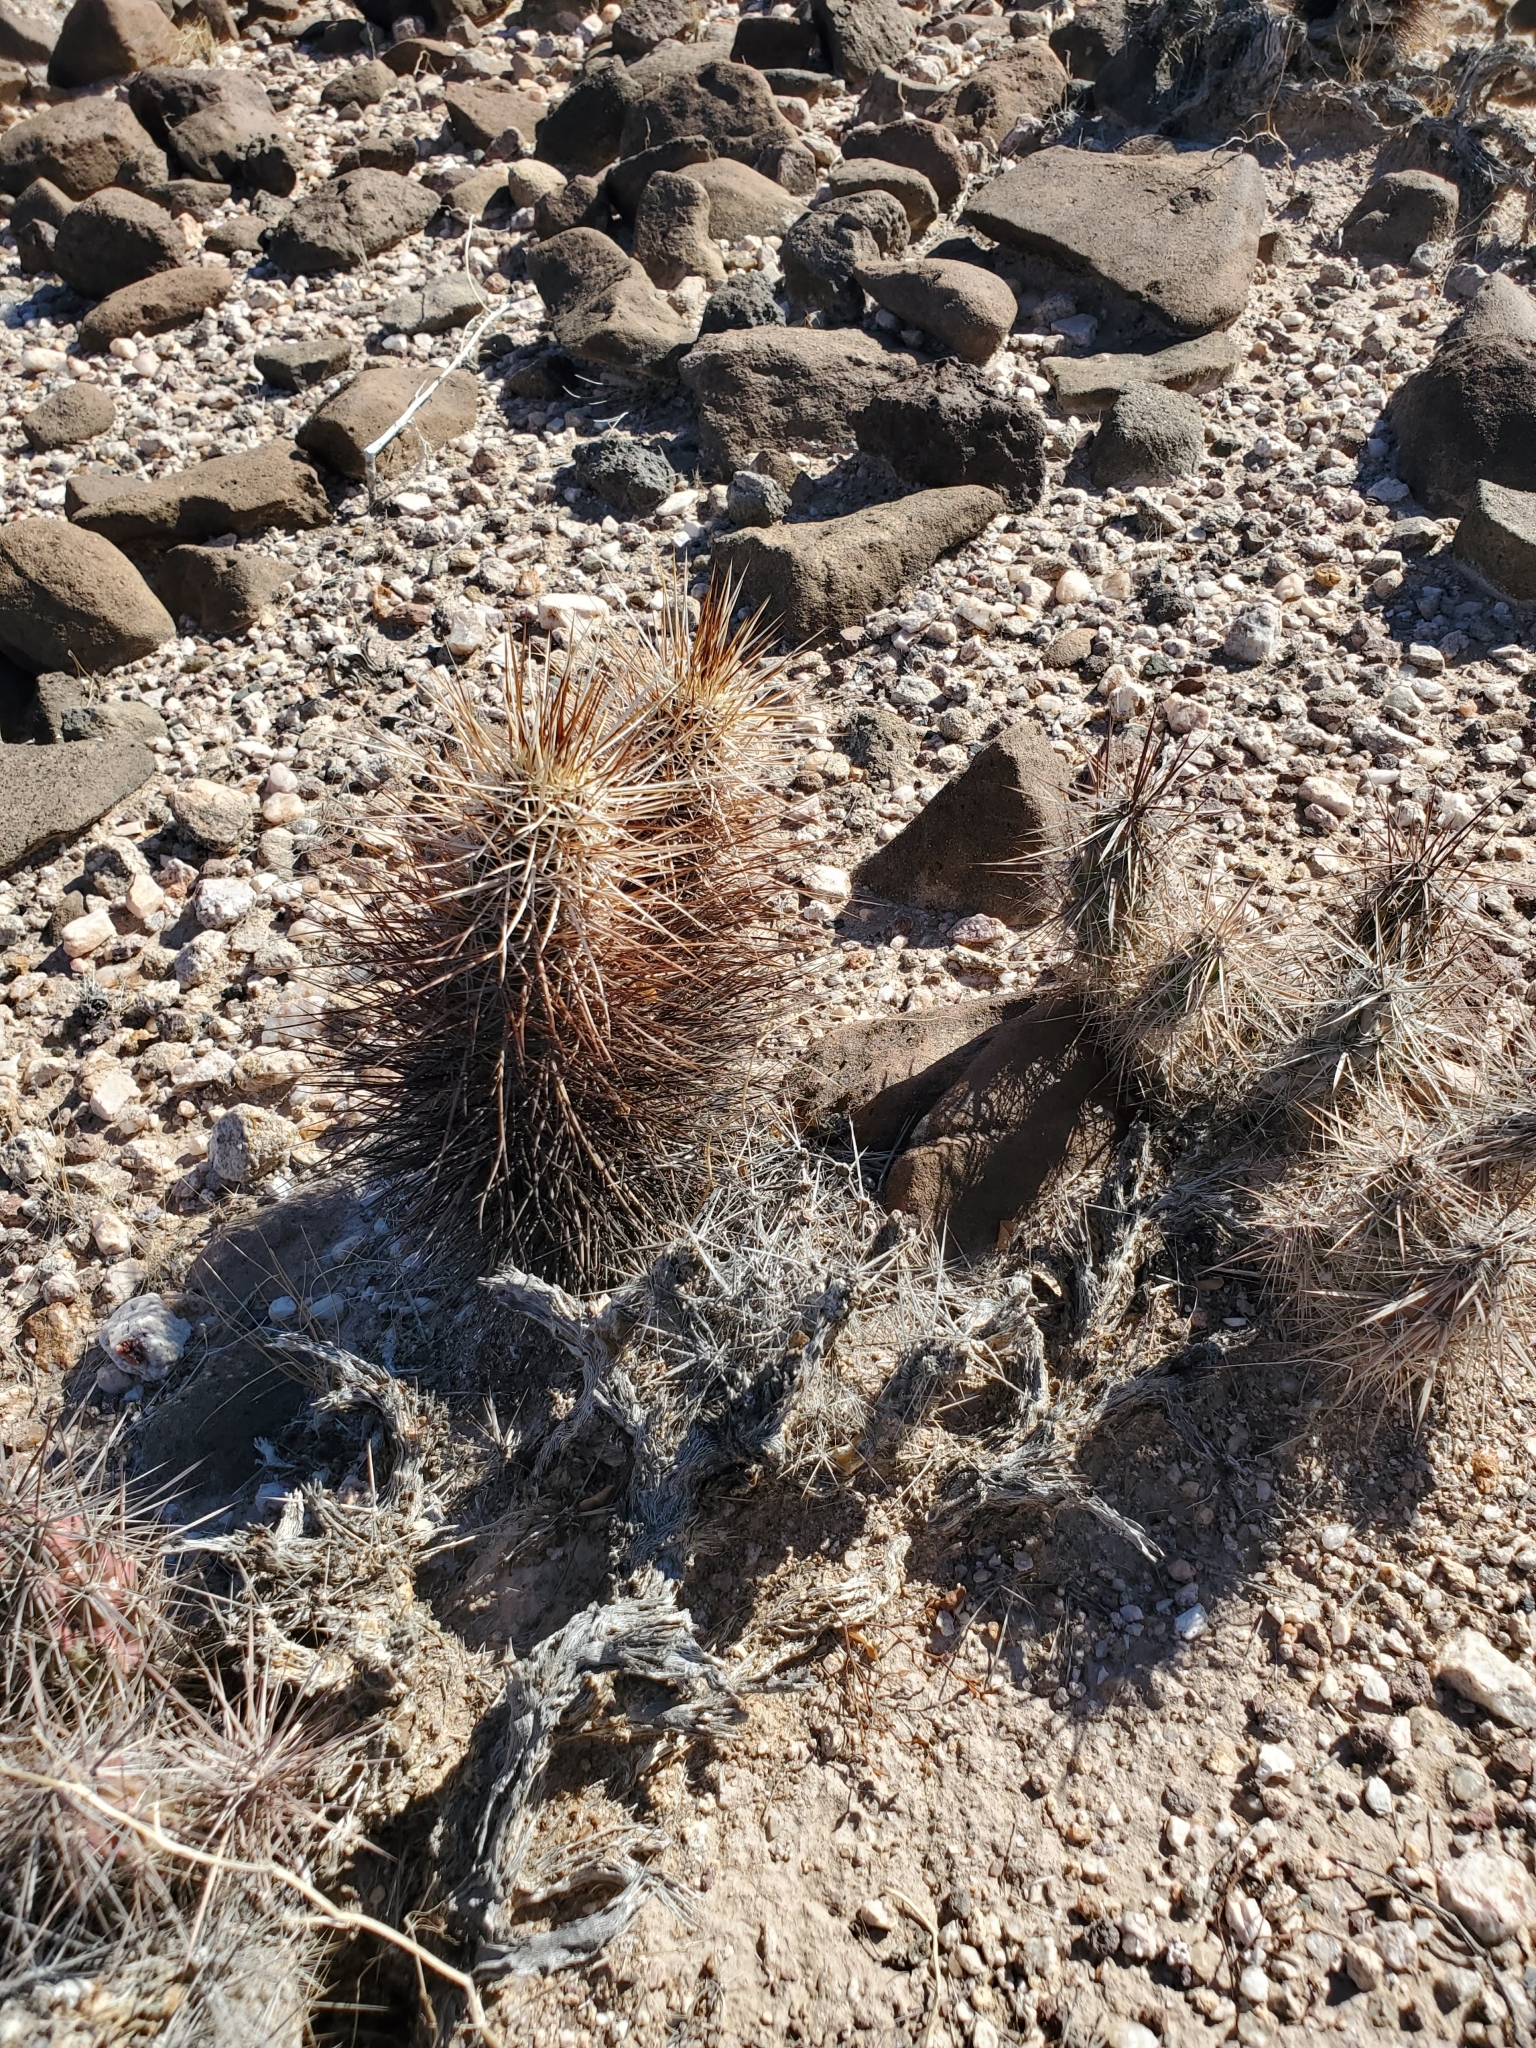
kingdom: Plantae
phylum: Tracheophyta
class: Magnoliopsida
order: Caryophyllales
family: Cactaceae
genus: Echinocereus
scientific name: Echinocereus engelmannii
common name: Engelmann's hedgehog cactus
